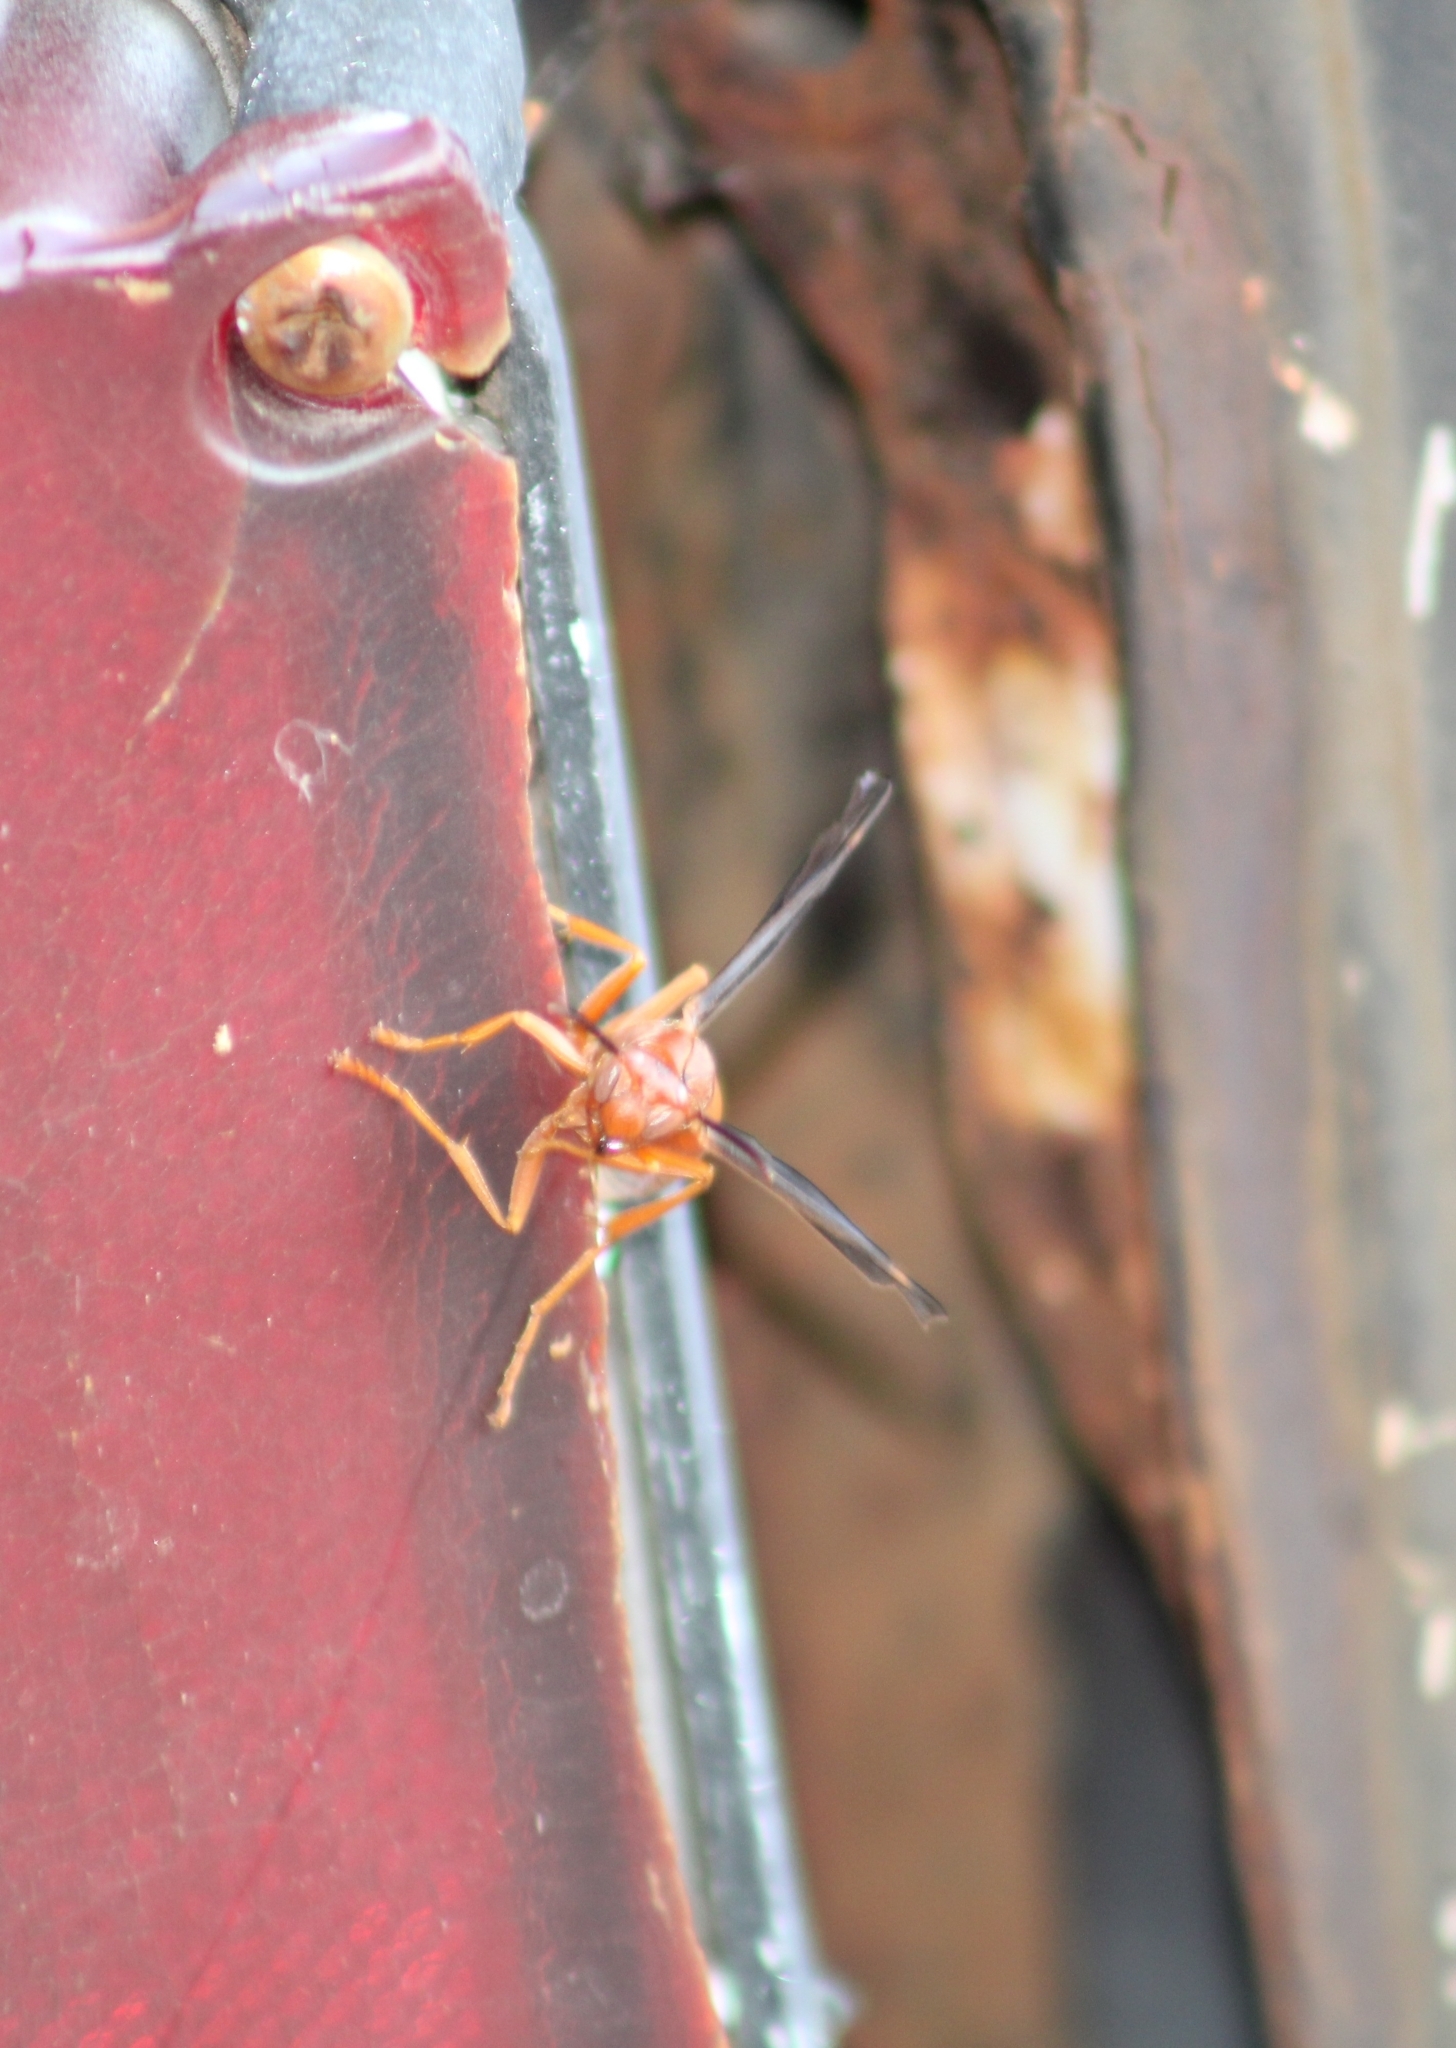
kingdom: Animalia
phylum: Arthropoda
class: Insecta
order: Hymenoptera
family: Vespidae
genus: Fuscopolistes
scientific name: Fuscopolistes
